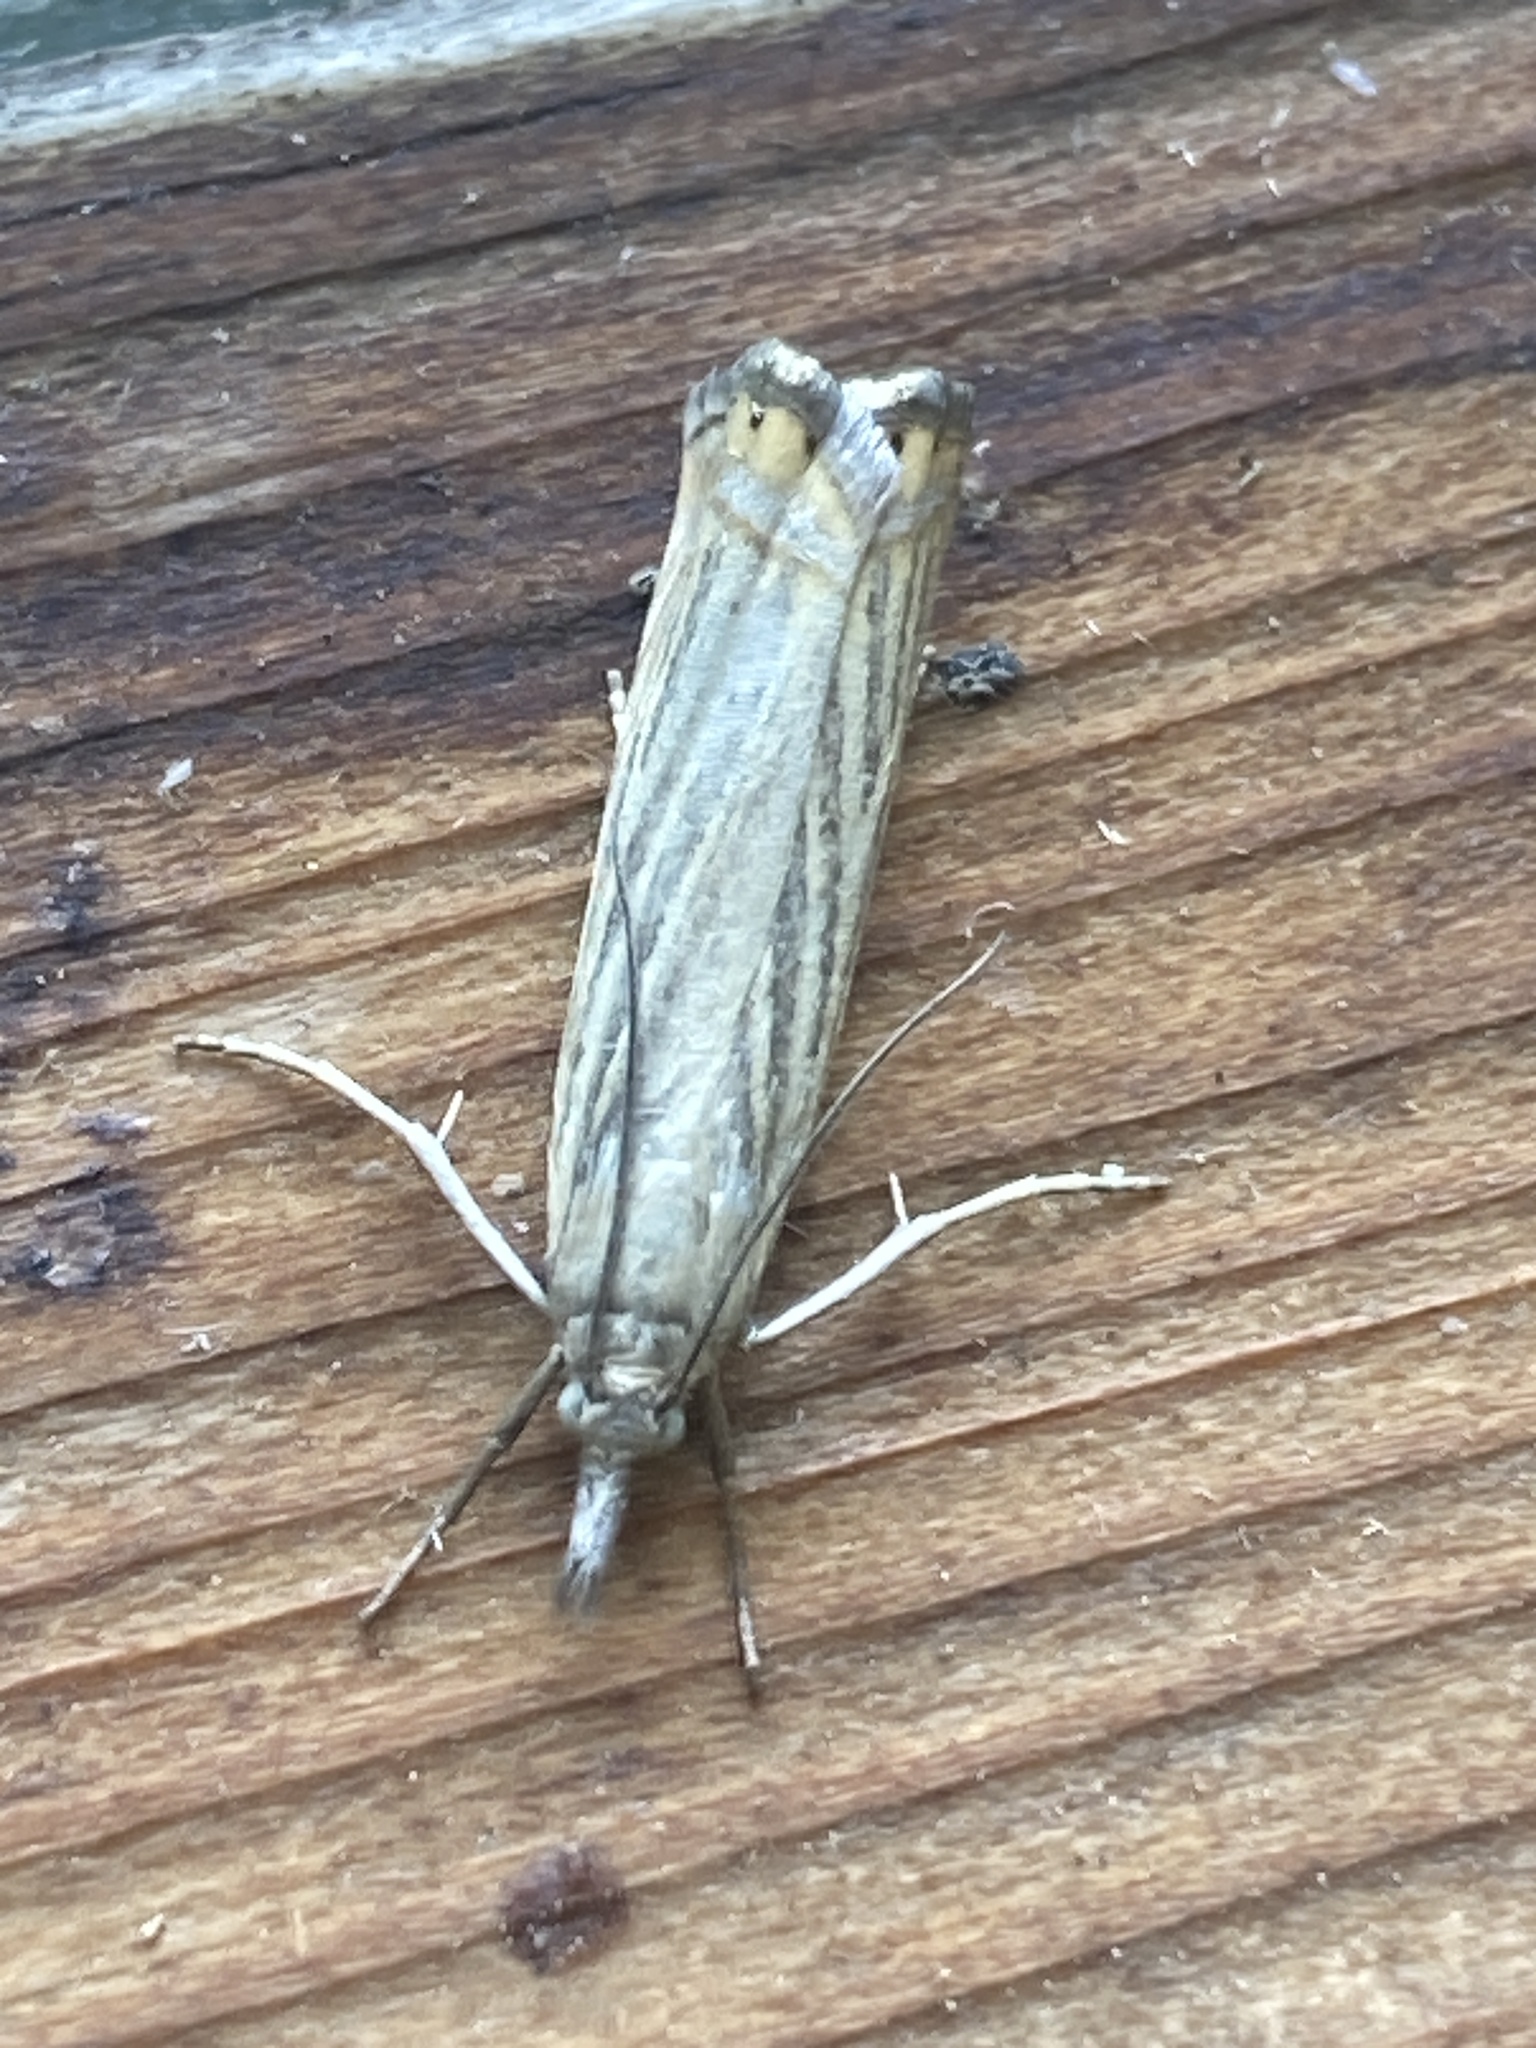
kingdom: Animalia
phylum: Arthropoda
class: Insecta
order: Lepidoptera
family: Crambidae
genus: Chrysoteuchia
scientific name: Chrysoteuchia culmella
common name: Garden grass-veneer
